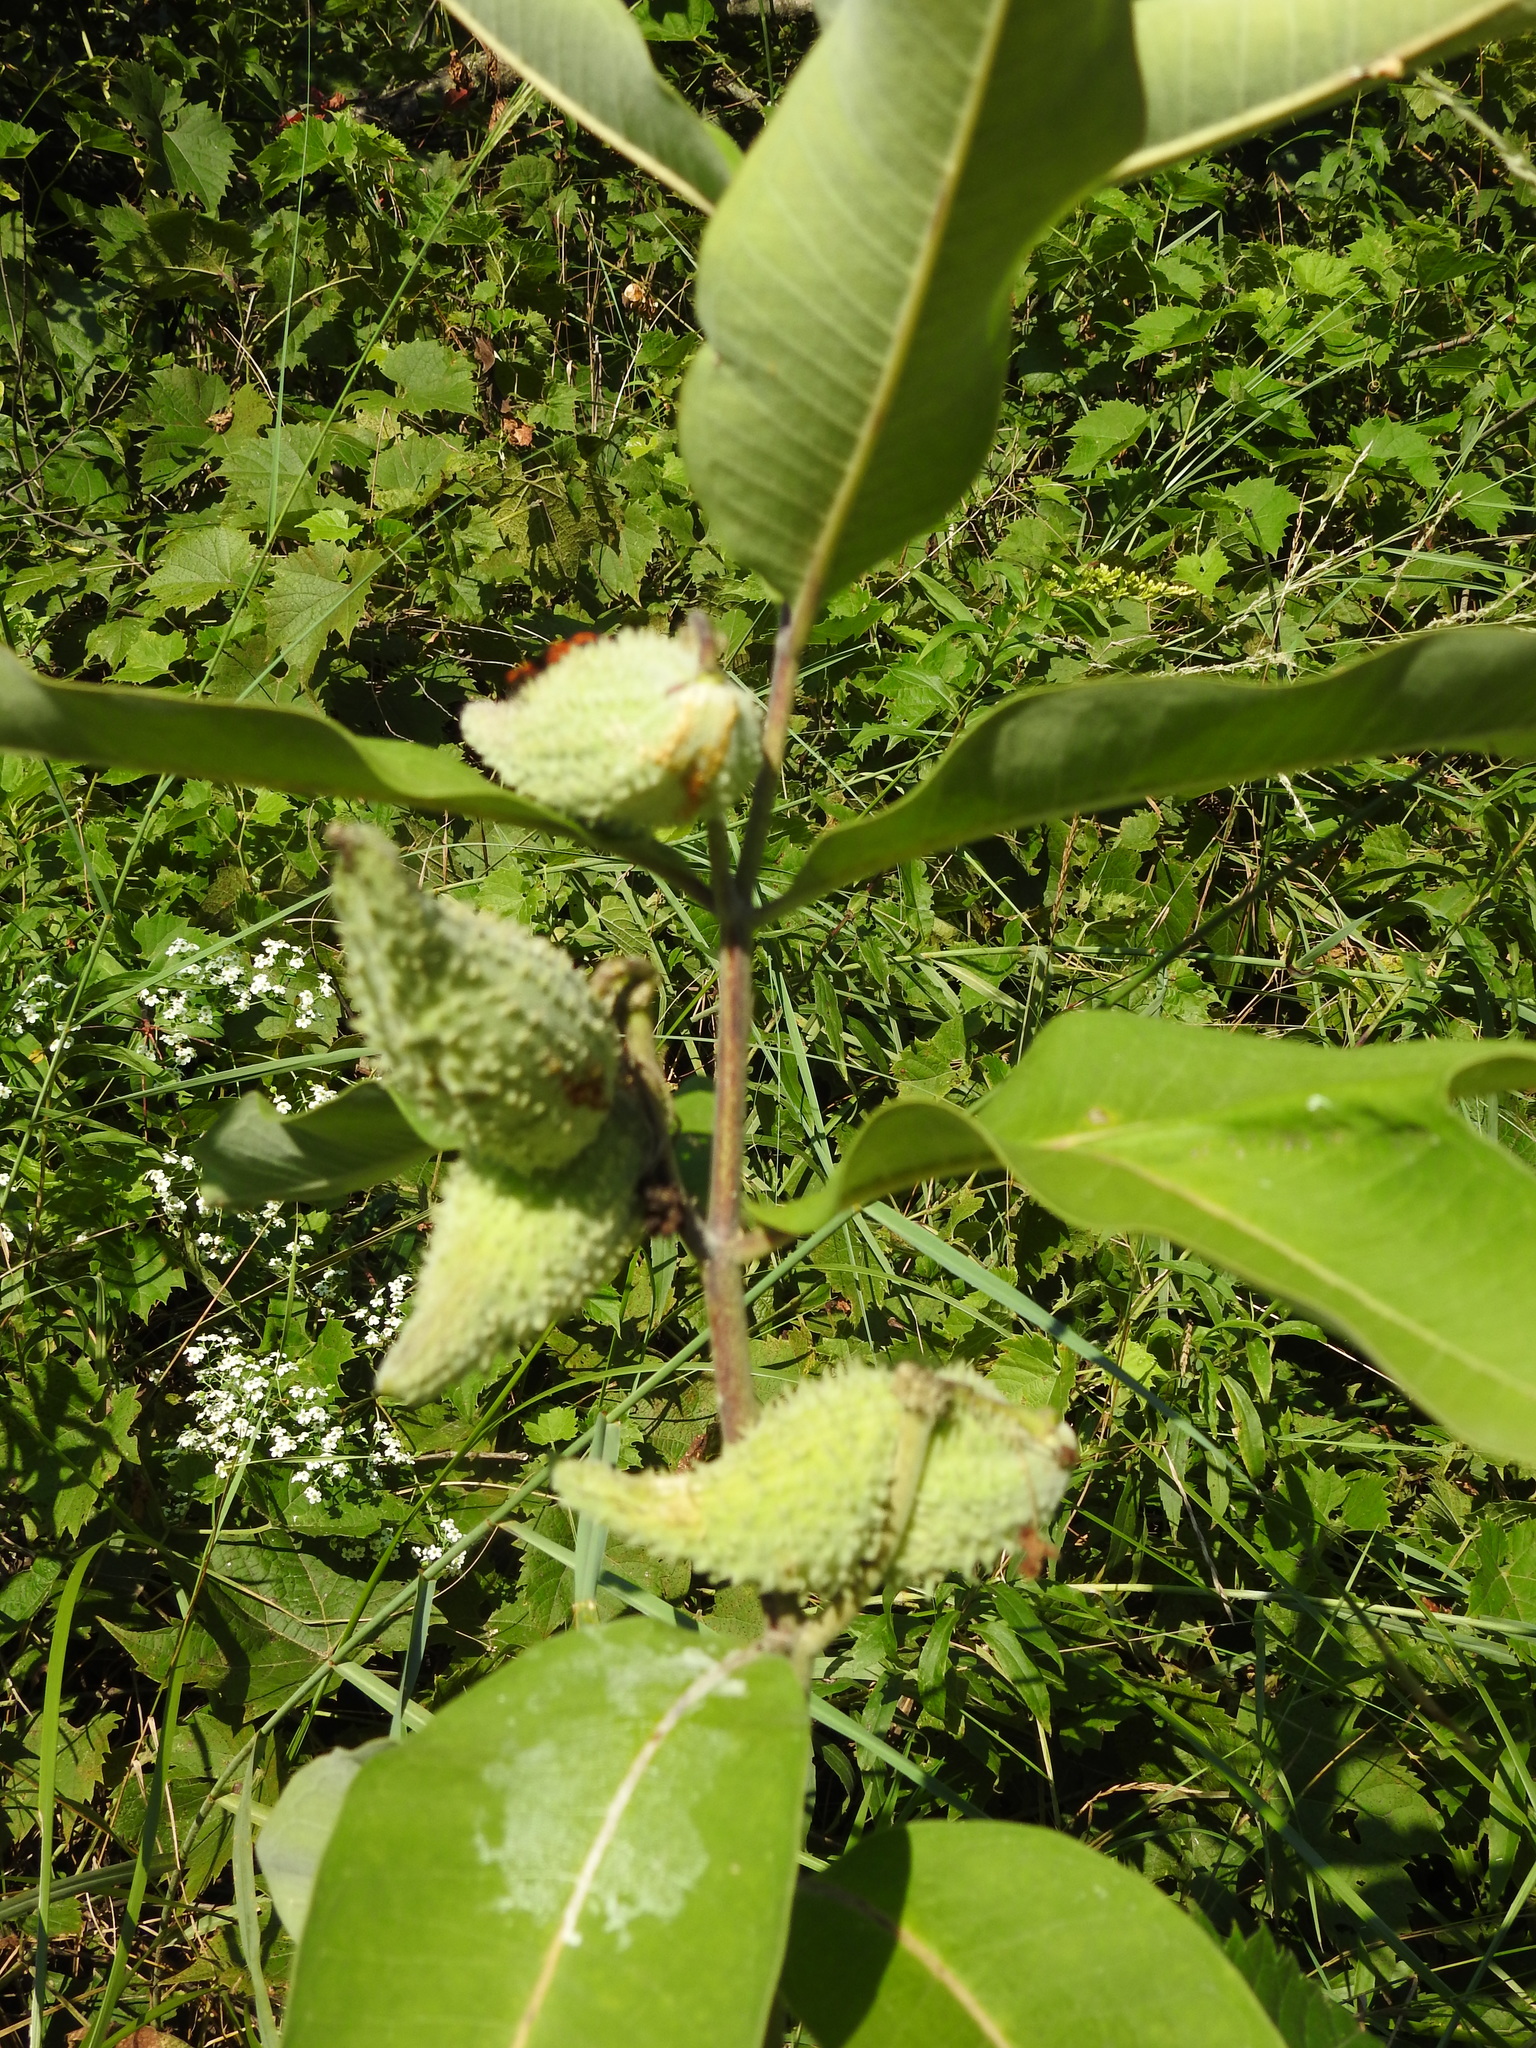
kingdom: Plantae
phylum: Tracheophyta
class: Magnoliopsida
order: Gentianales
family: Apocynaceae
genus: Asclepias
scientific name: Asclepias syriaca
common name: Common milkweed
